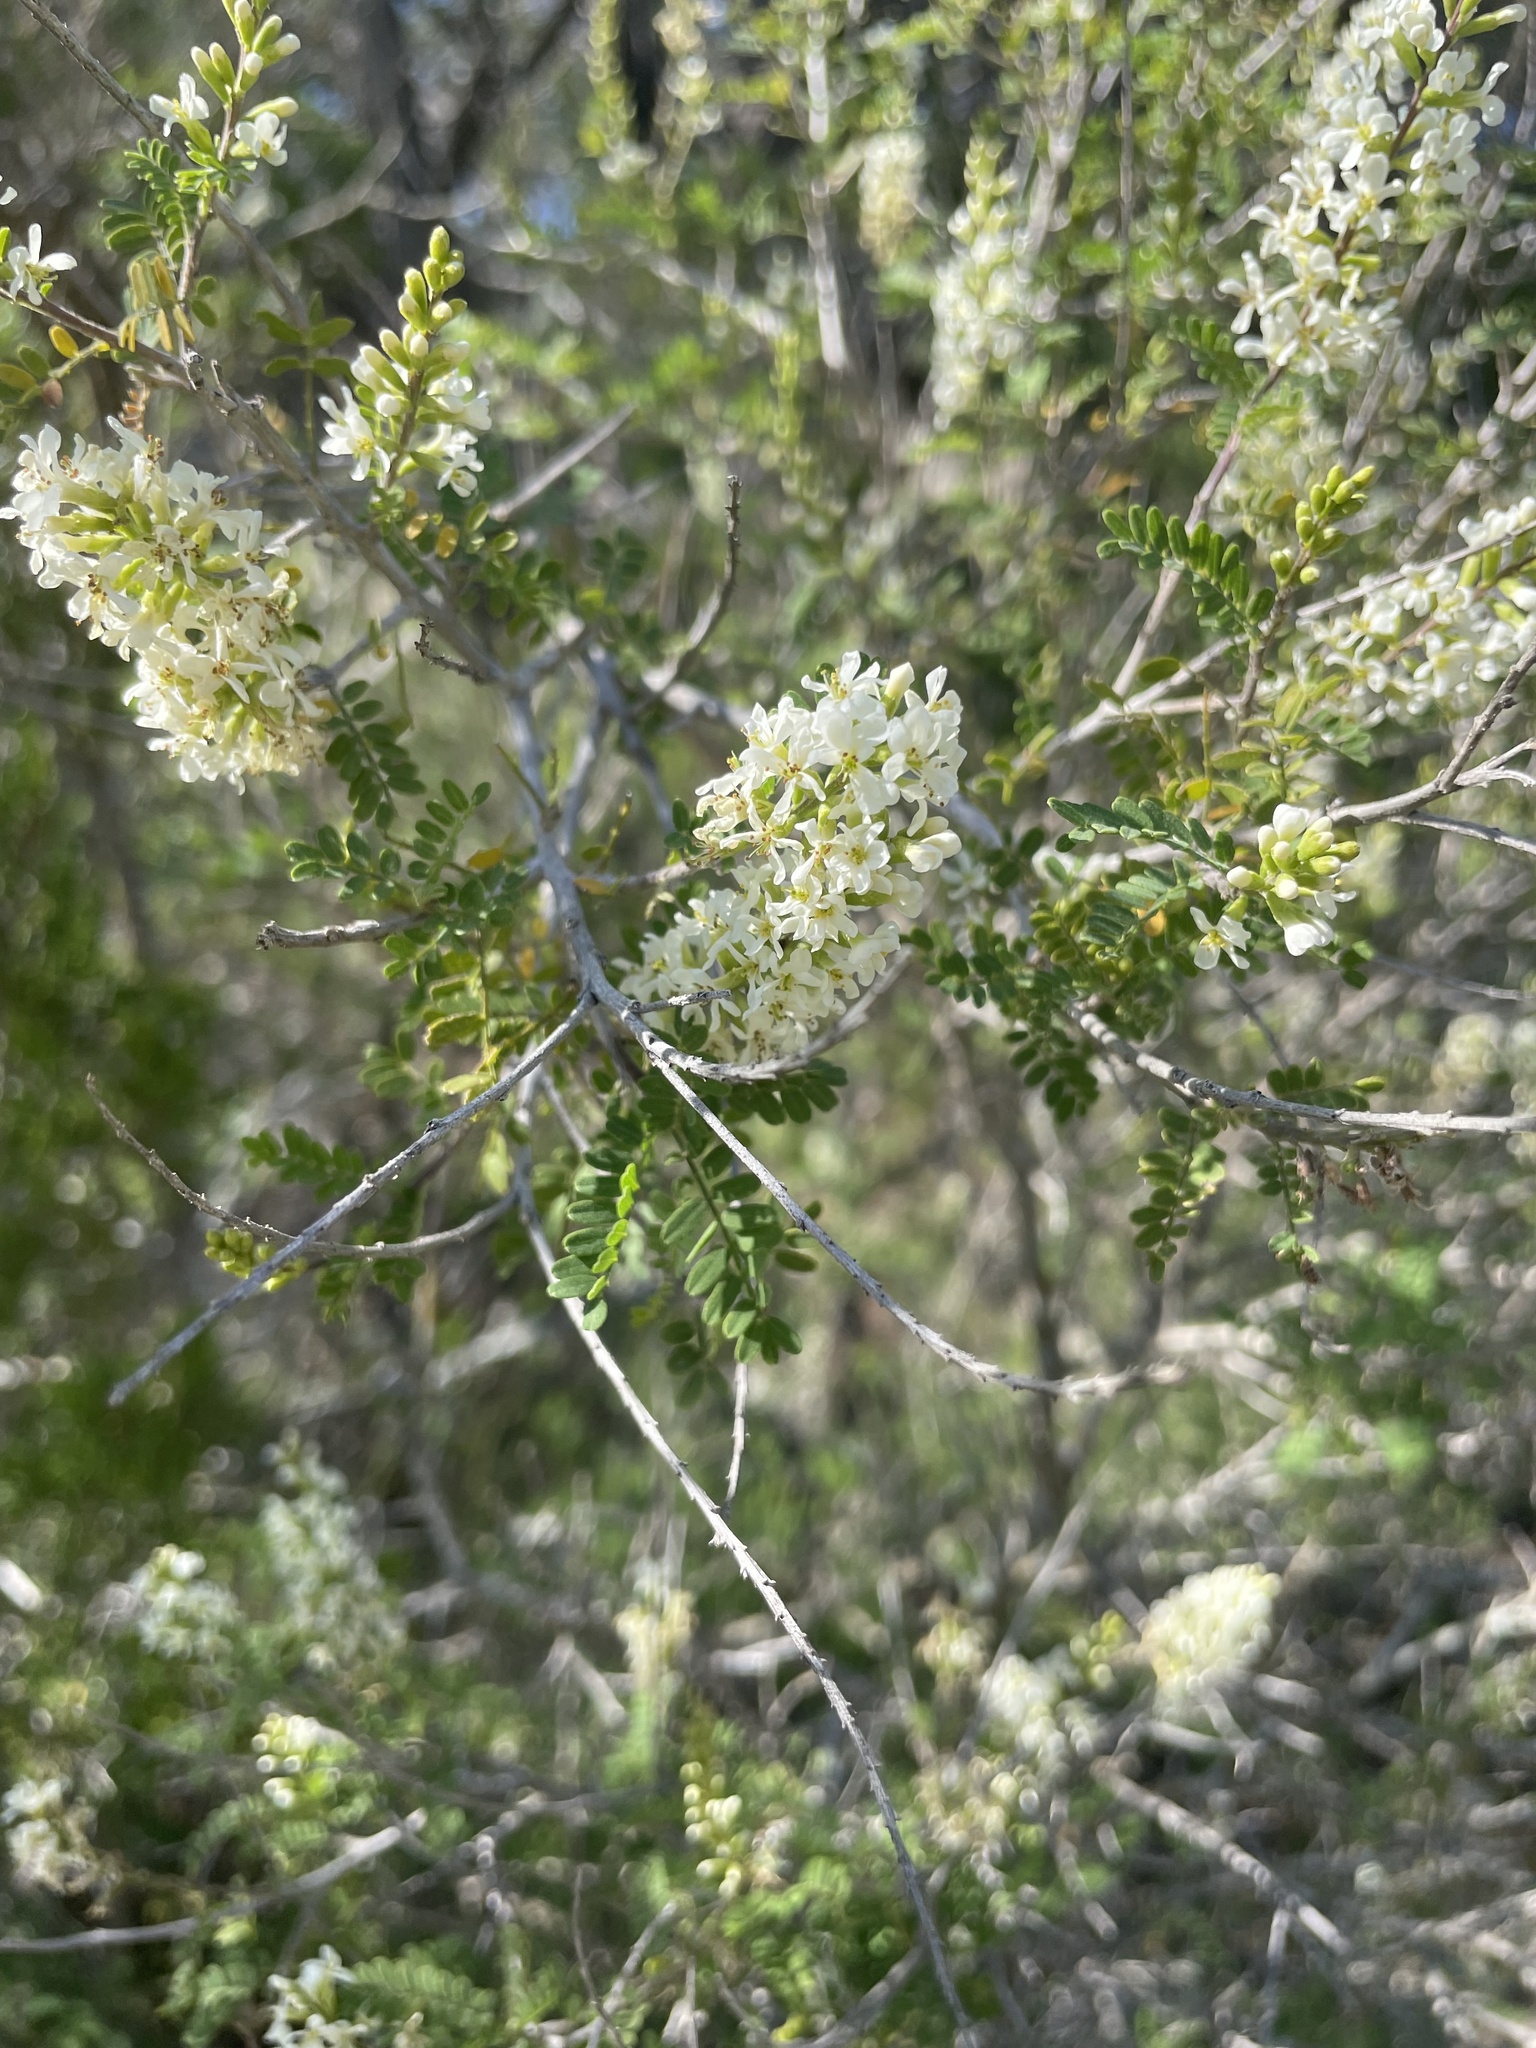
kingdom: Plantae
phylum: Tracheophyta
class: Magnoliopsida
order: Fabales
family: Fabaceae
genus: Eysenhardtia
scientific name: Eysenhardtia texana
